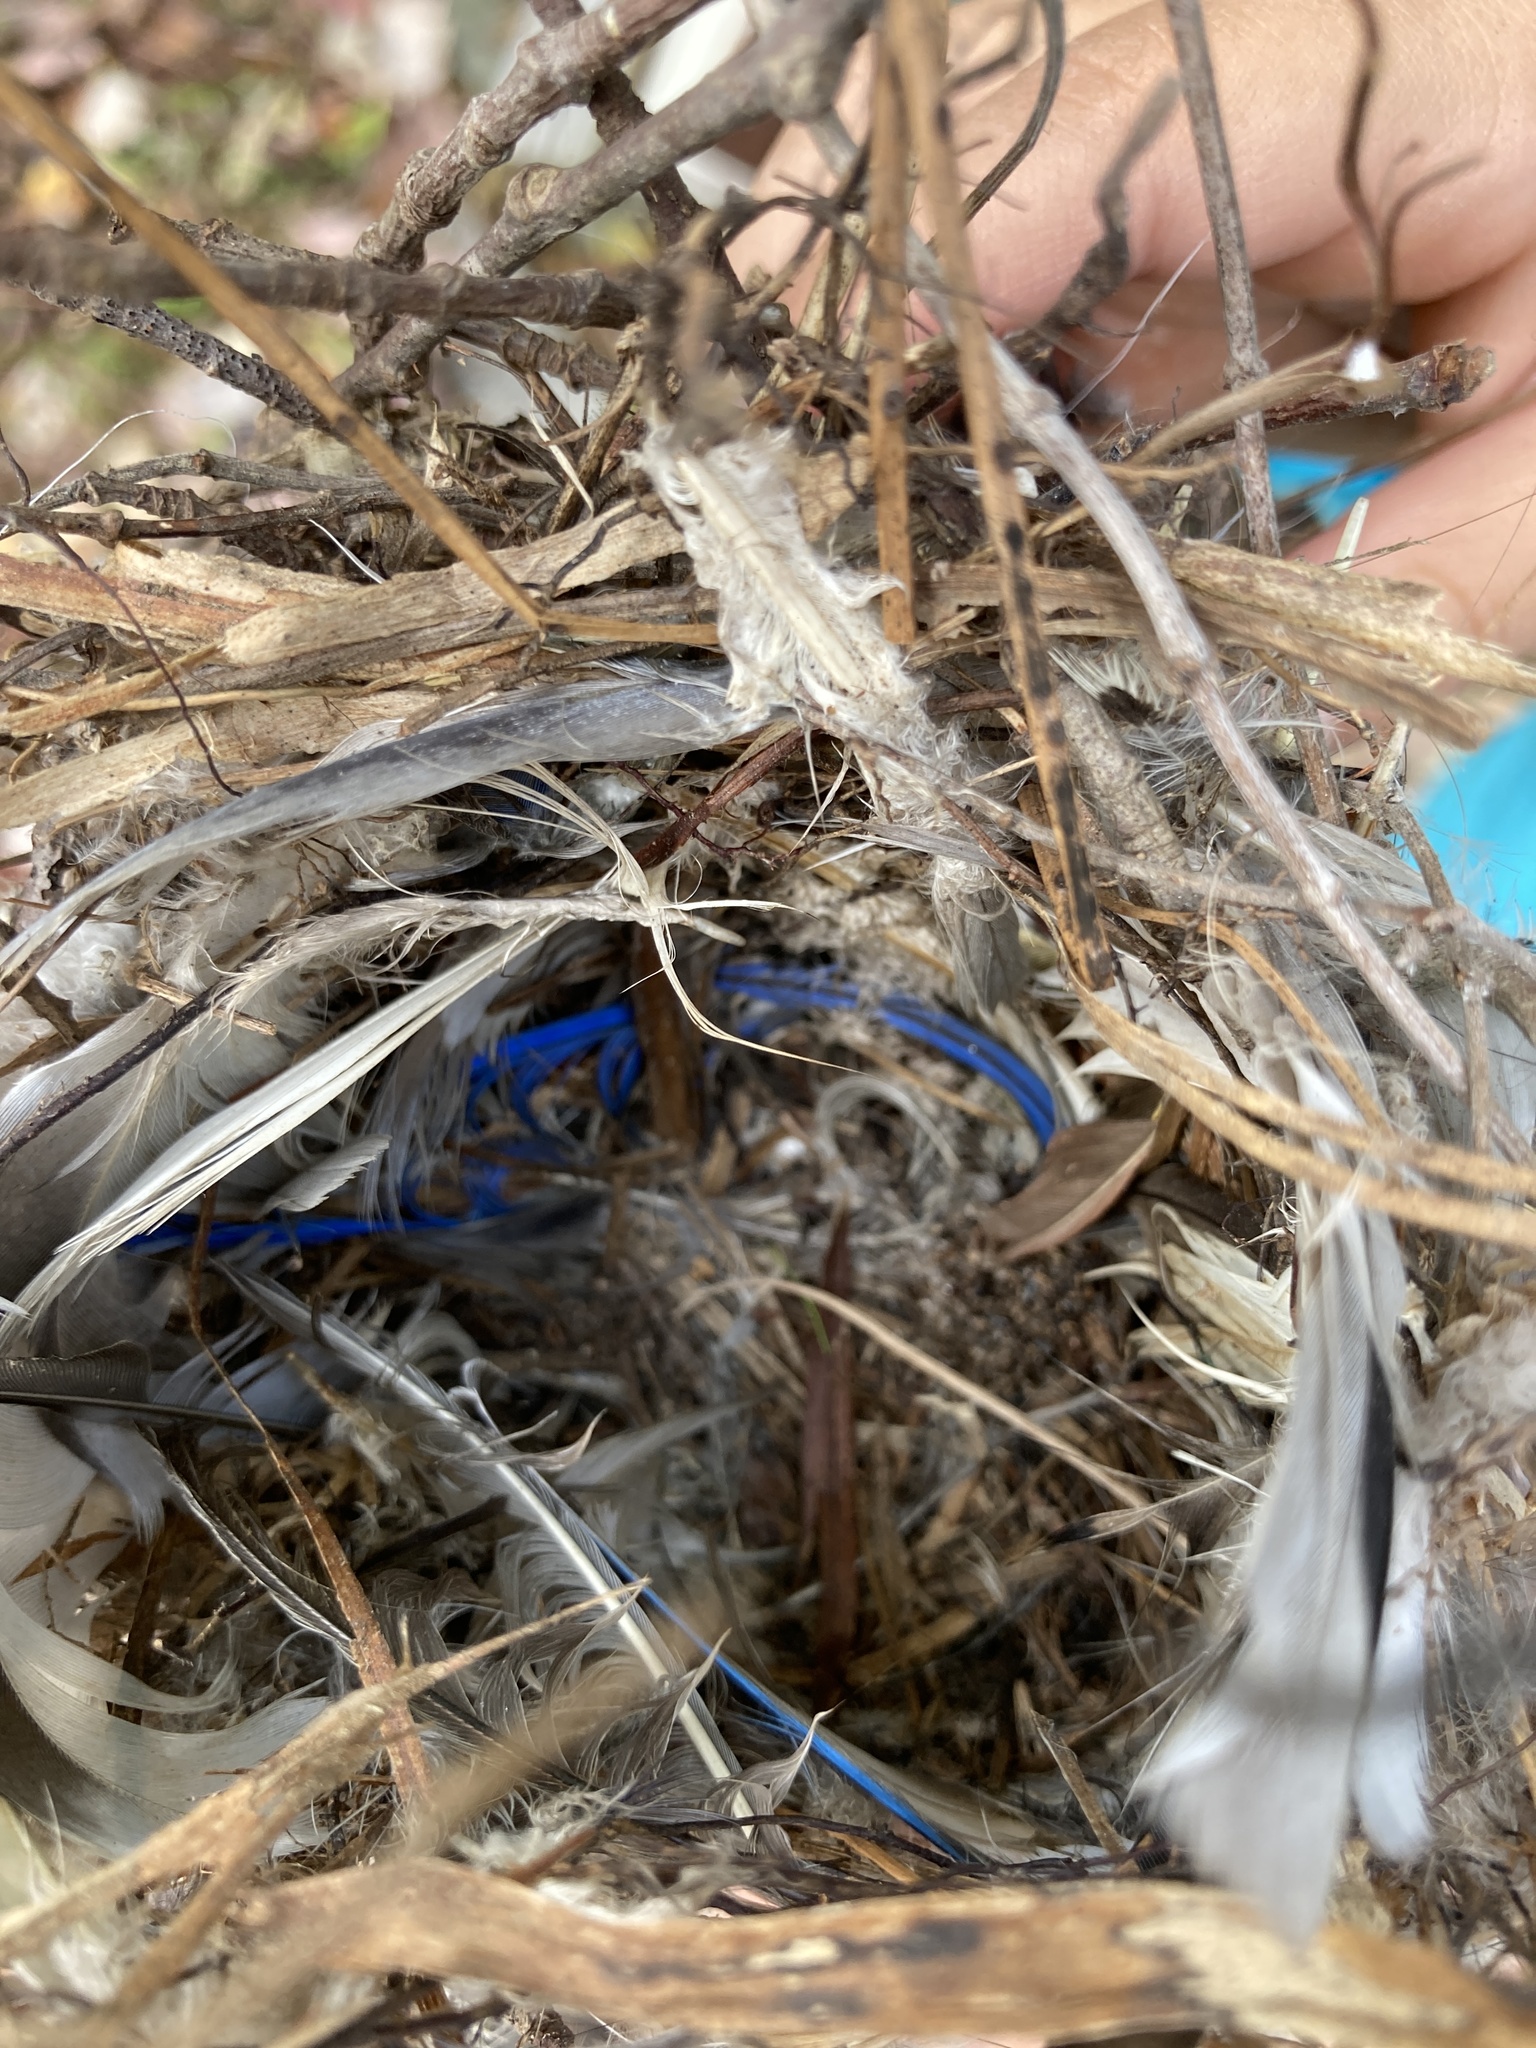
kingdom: Animalia
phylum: Chordata
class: Aves
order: Passeriformes
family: Turdidae
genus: Sialia
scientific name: Sialia sialis
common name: Eastern bluebird
